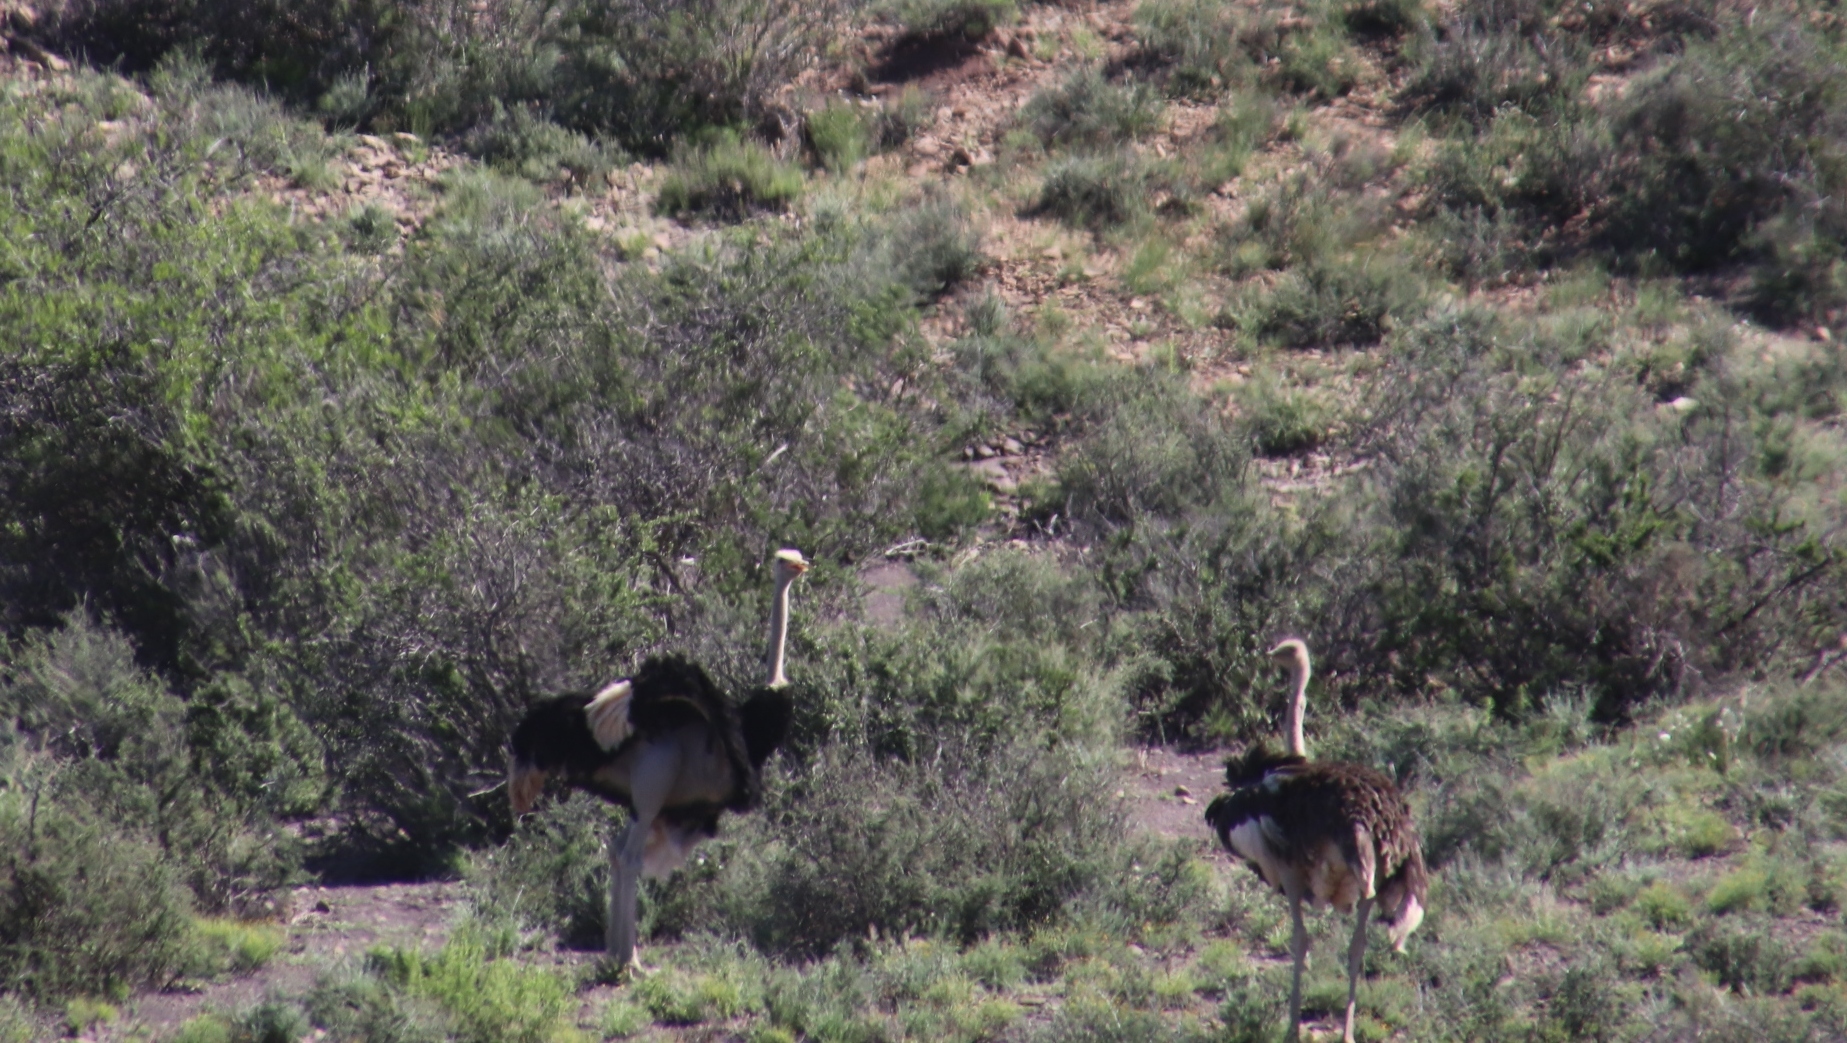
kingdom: Animalia
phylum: Chordata
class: Aves
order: Struthioniformes
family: Struthionidae
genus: Struthio
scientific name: Struthio camelus
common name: Common ostrich
